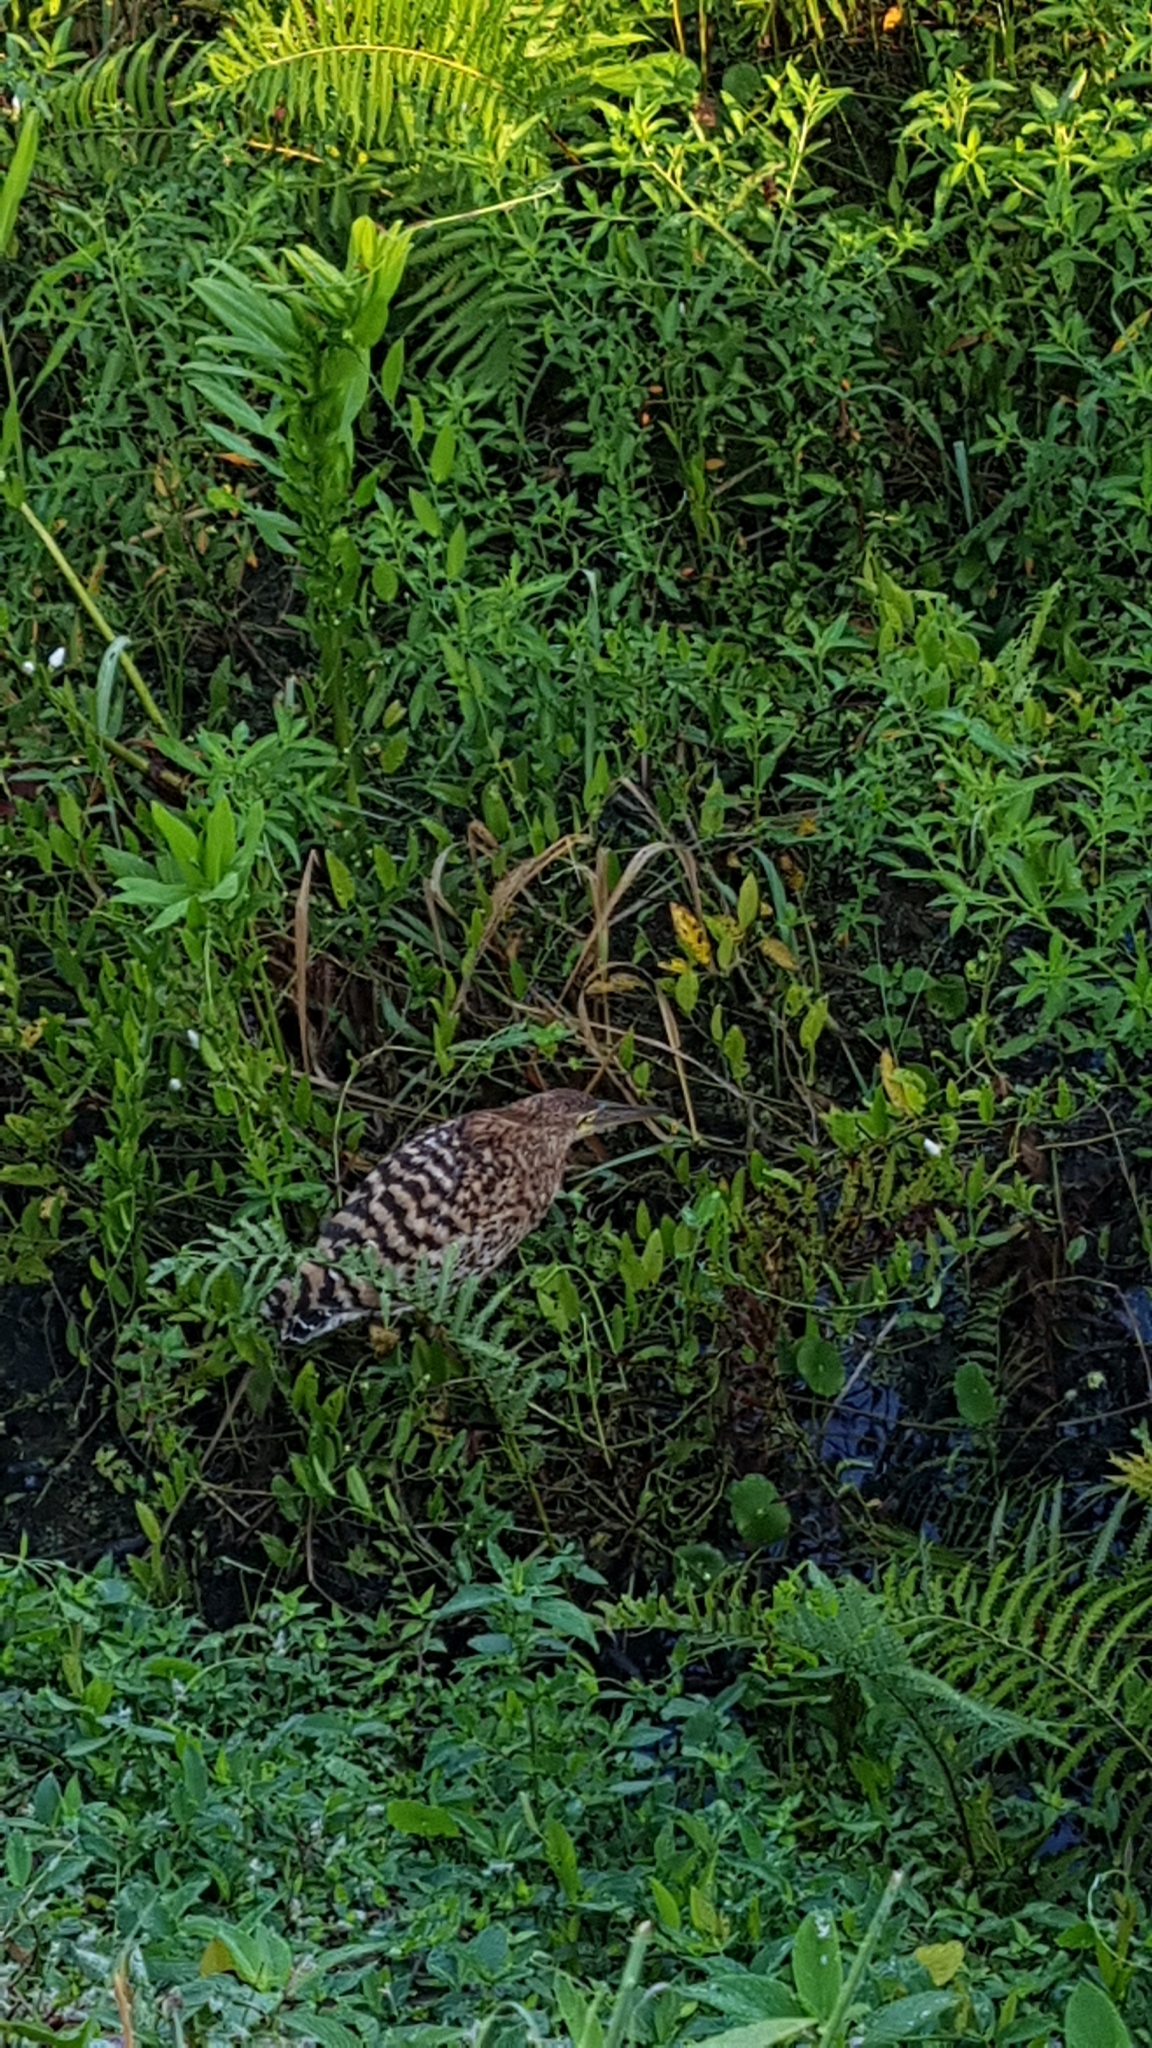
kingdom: Animalia
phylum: Chordata
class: Aves
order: Pelecaniformes
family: Ardeidae
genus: Tigrisoma
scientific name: Tigrisoma lineatum
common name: Rufescent tiger-heron
